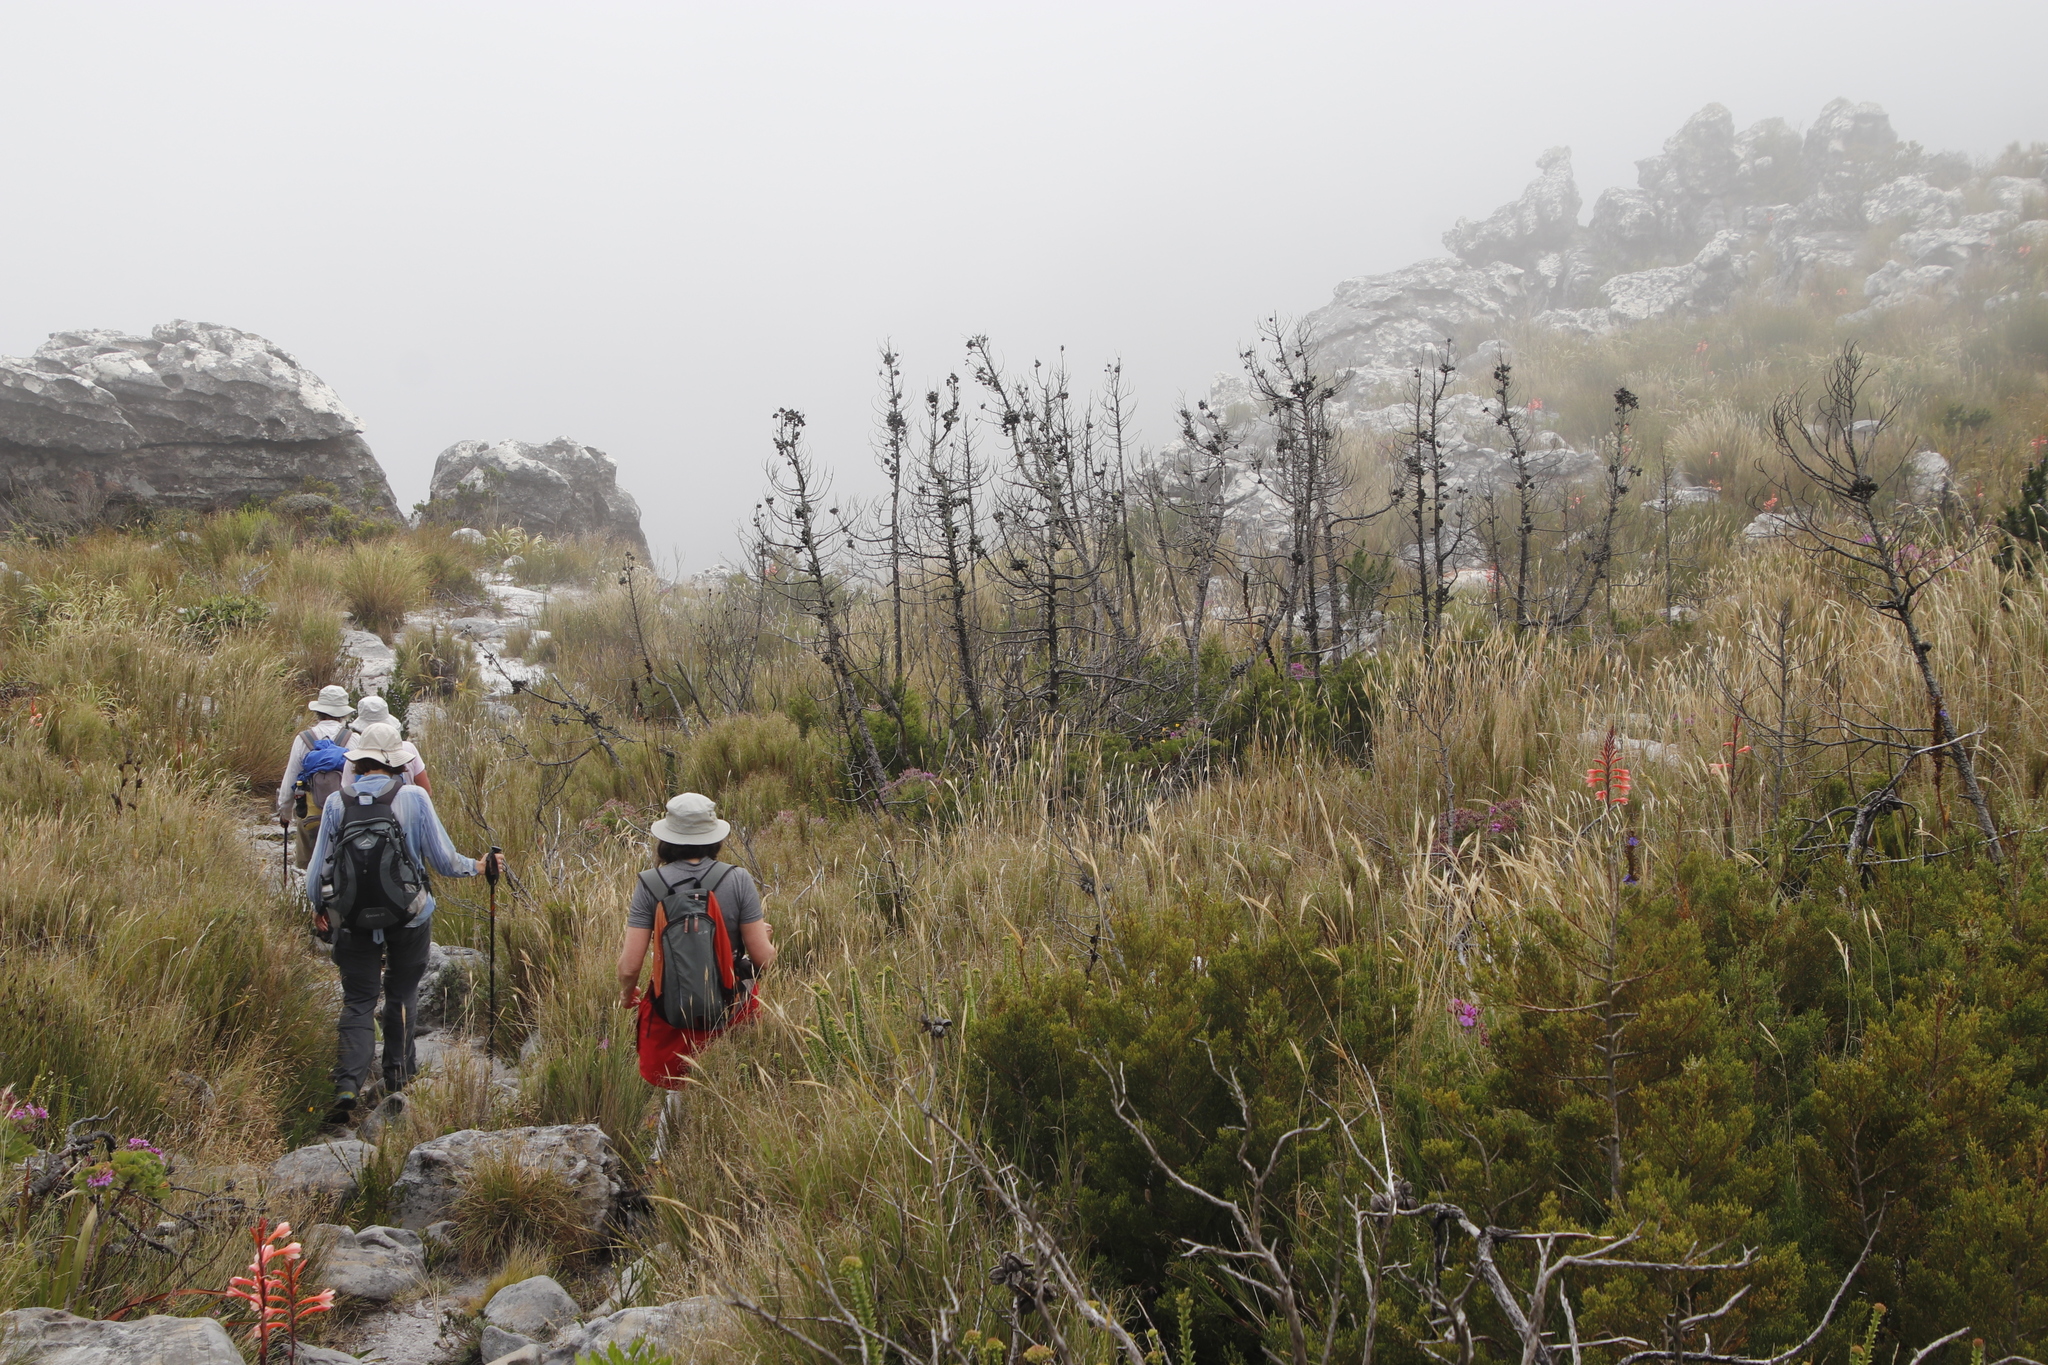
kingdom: Plantae
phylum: Tracheophyta
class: Pinopsida
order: Pinales
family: Cupressaceae
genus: Widdringtonia
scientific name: Widdringtonia nodiflora
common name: Cape cypress
